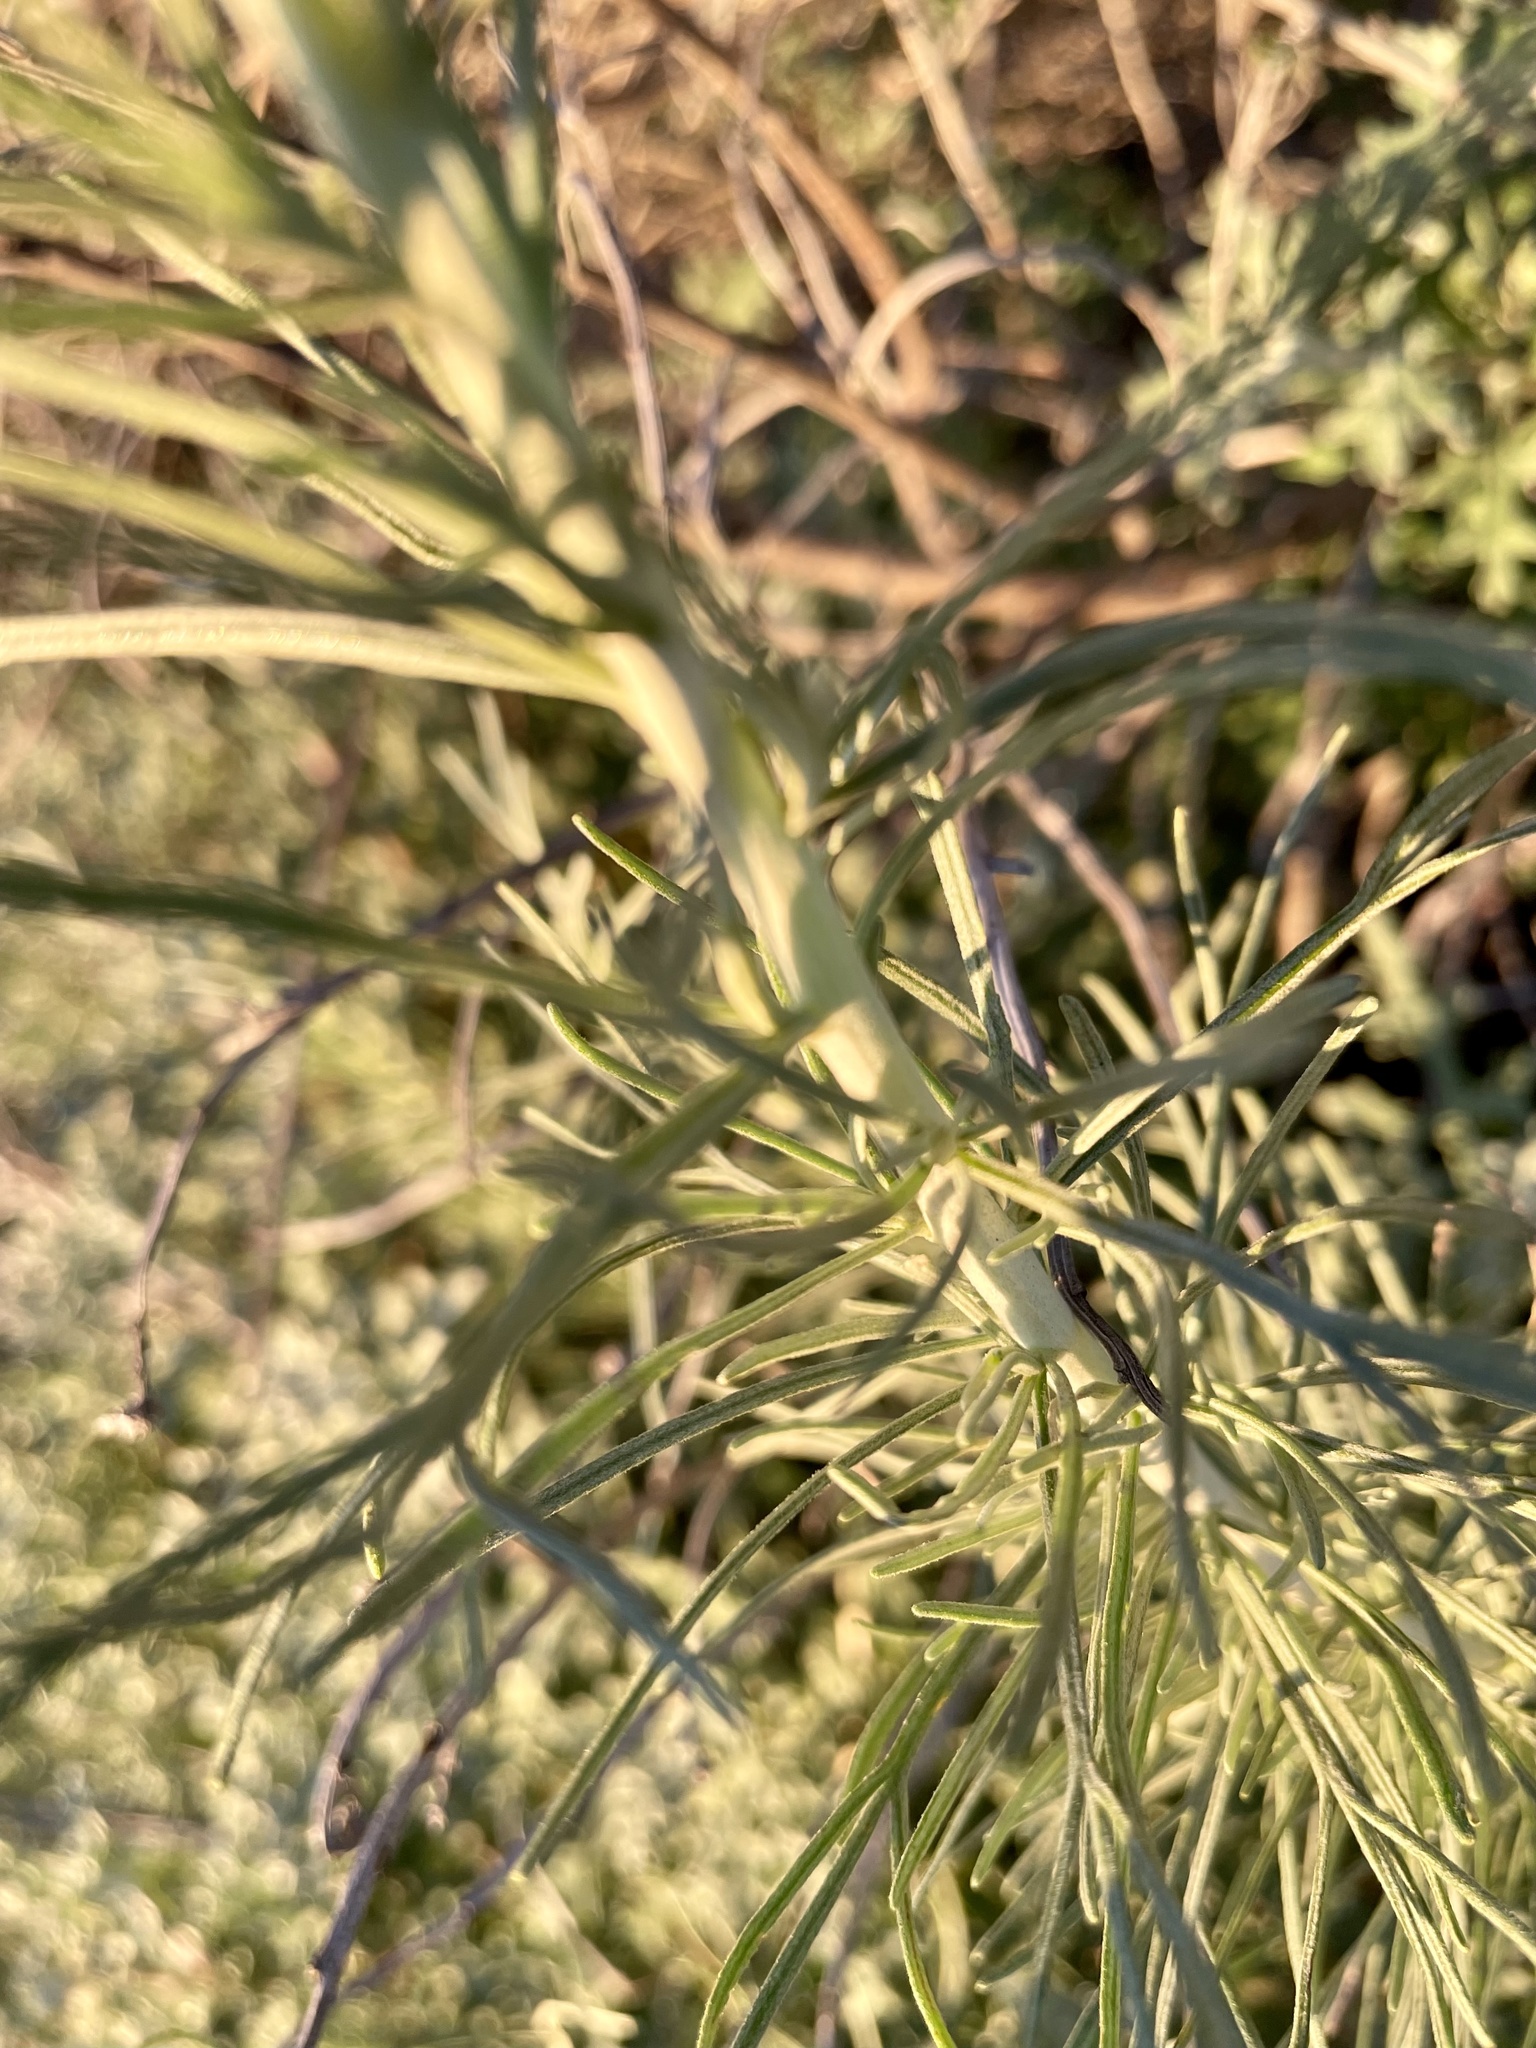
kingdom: Plantae
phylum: Tracheophyta
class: Magnoliopsida
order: Asterales
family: Asteraceae
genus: Artemisia
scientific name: Artemisia californica
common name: California sagebrush
